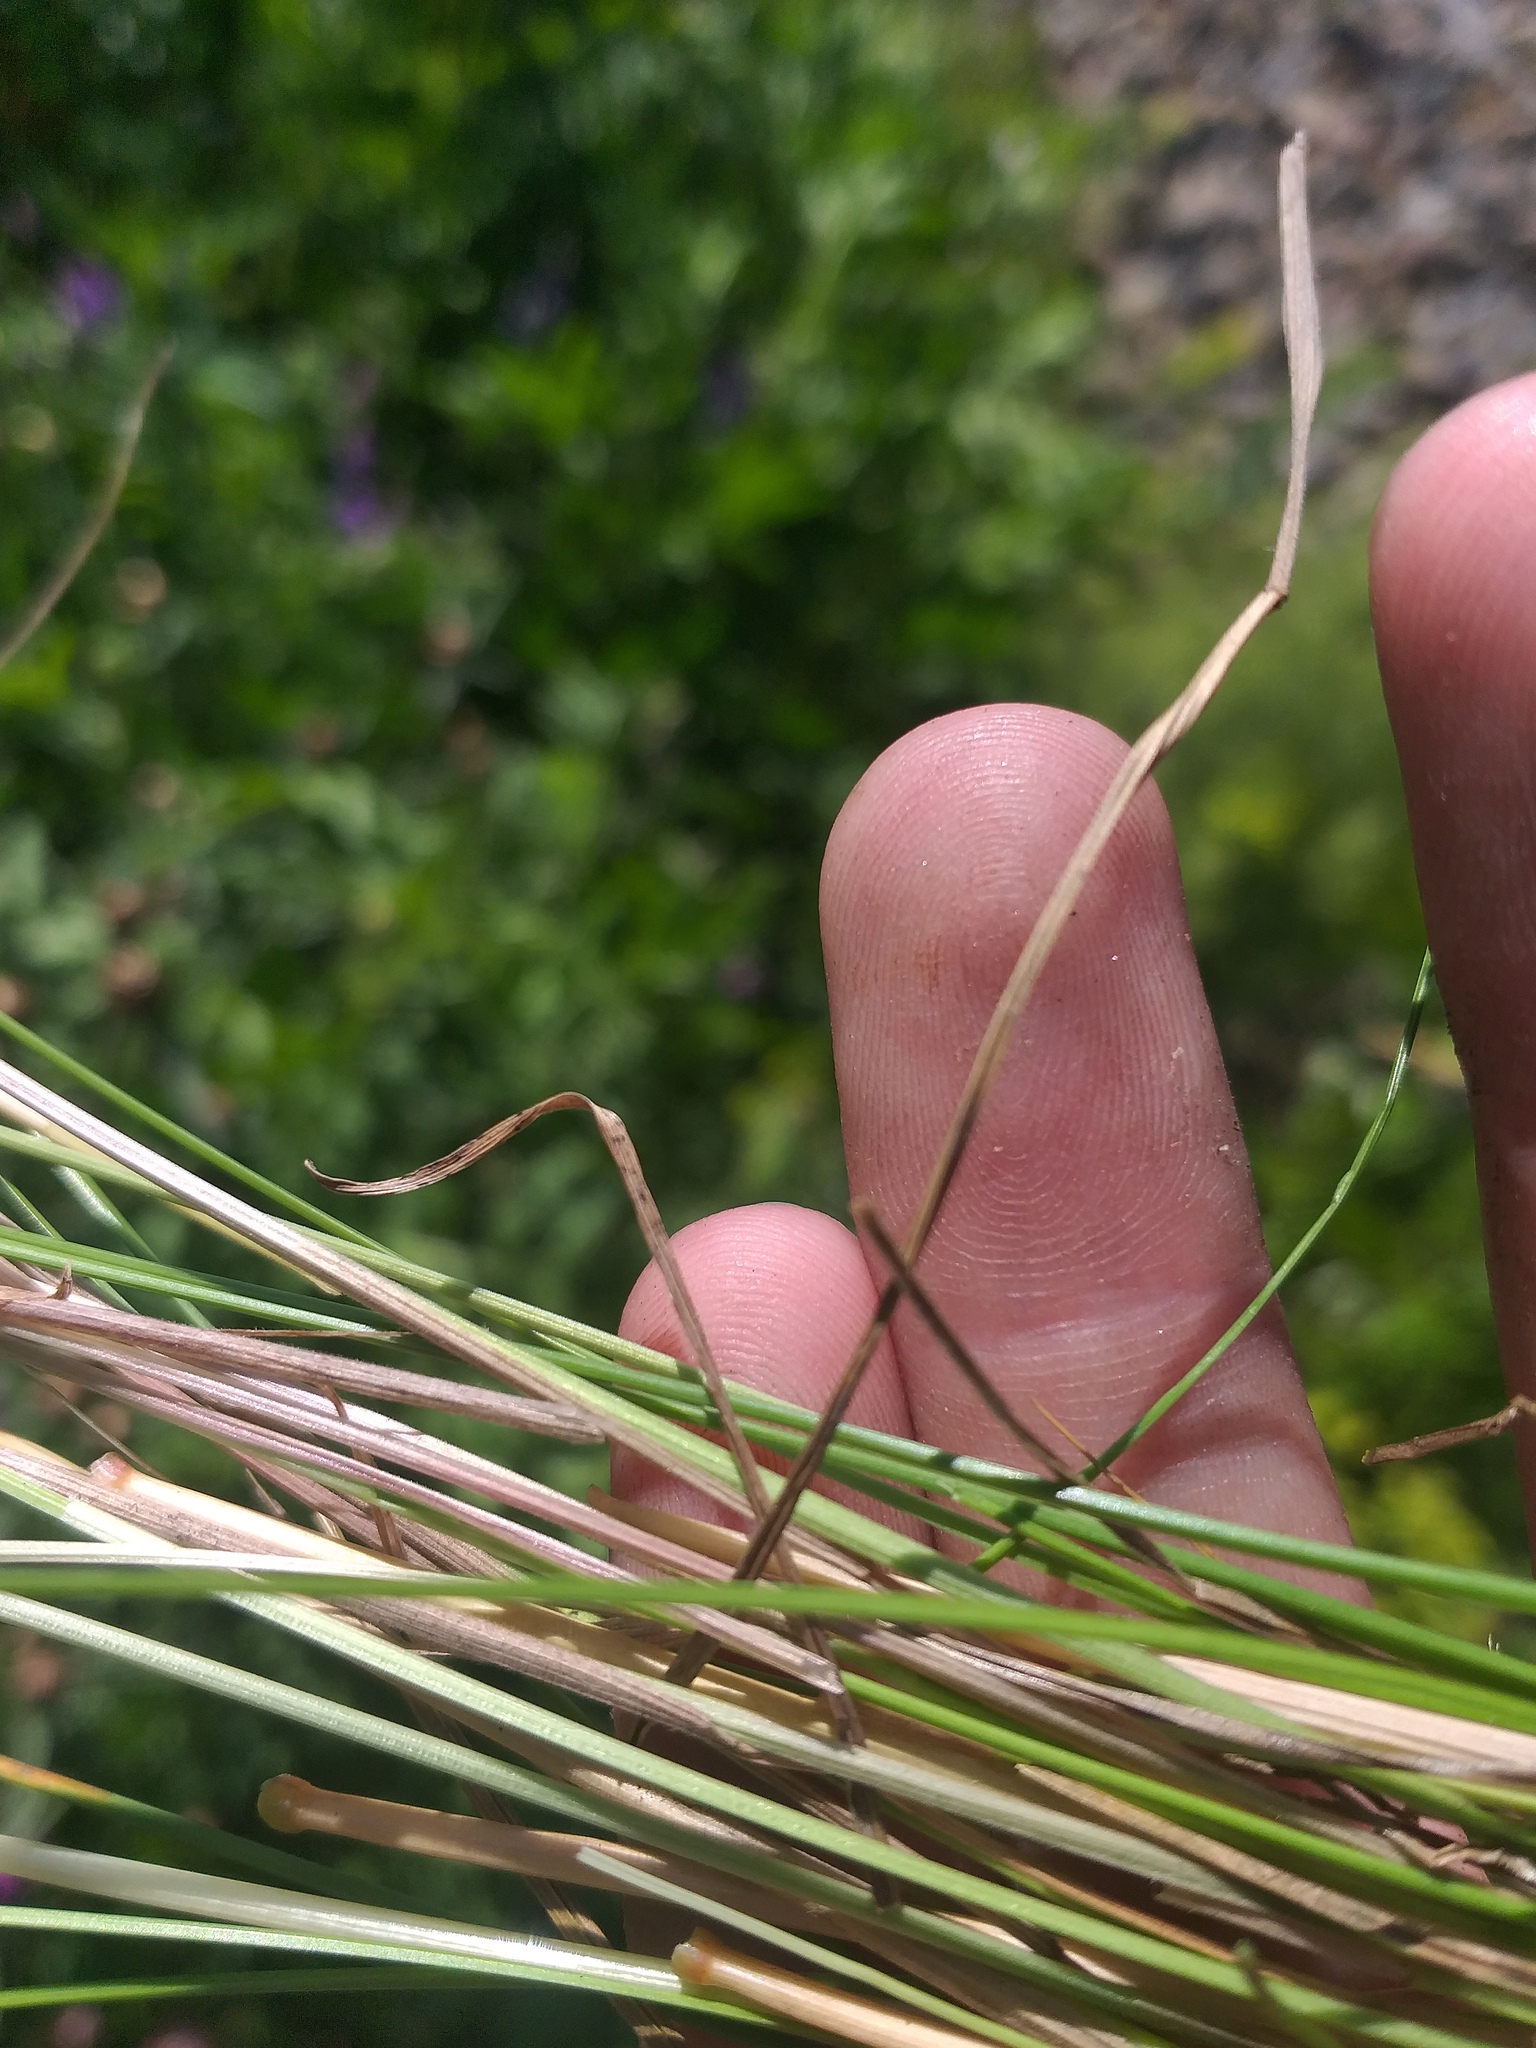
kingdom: Plantae
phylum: Tracheophyta
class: Liliopsida
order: Poales
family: Poaceae
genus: Festuca
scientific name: Festuca rubra
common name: Red fescue
